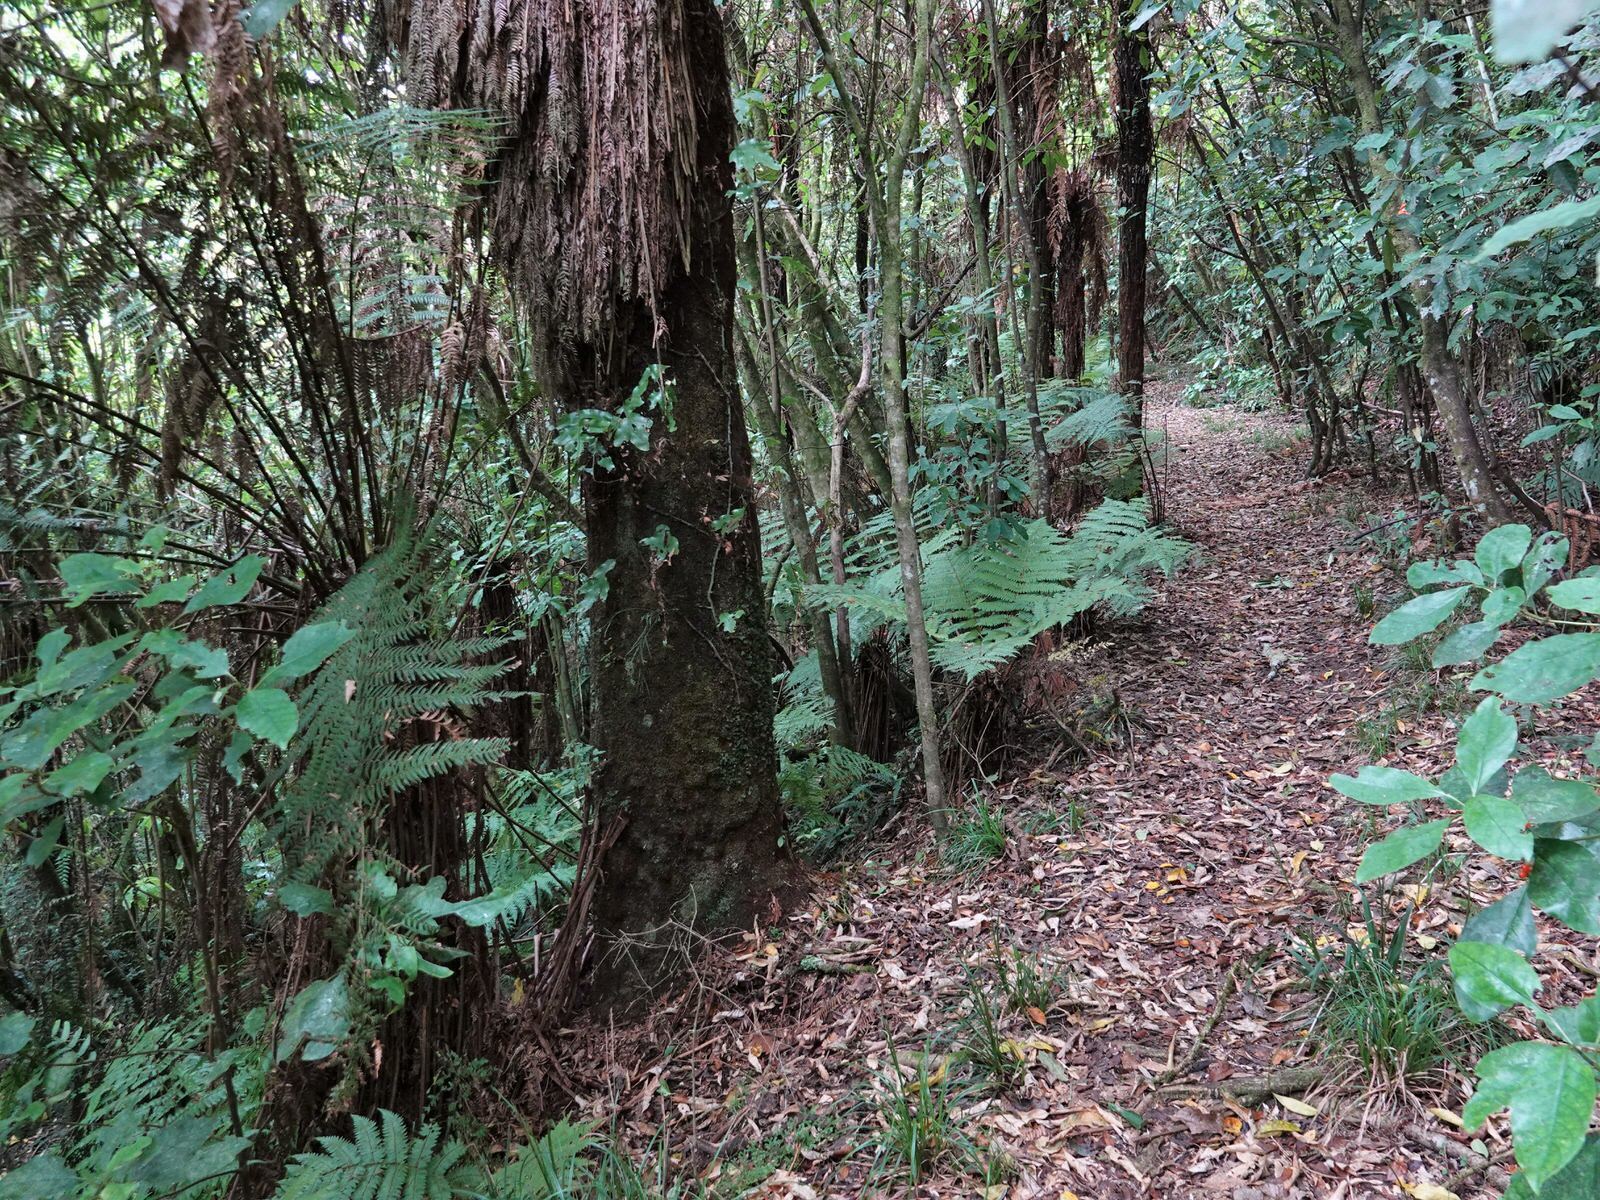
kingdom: Plantae
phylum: Tracheophyta
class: Polypodiopsida
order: Cyatheales
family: Dicksoniaceae
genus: Dicksonia
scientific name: Dicksonia fibrosa
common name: Golden tree fern
